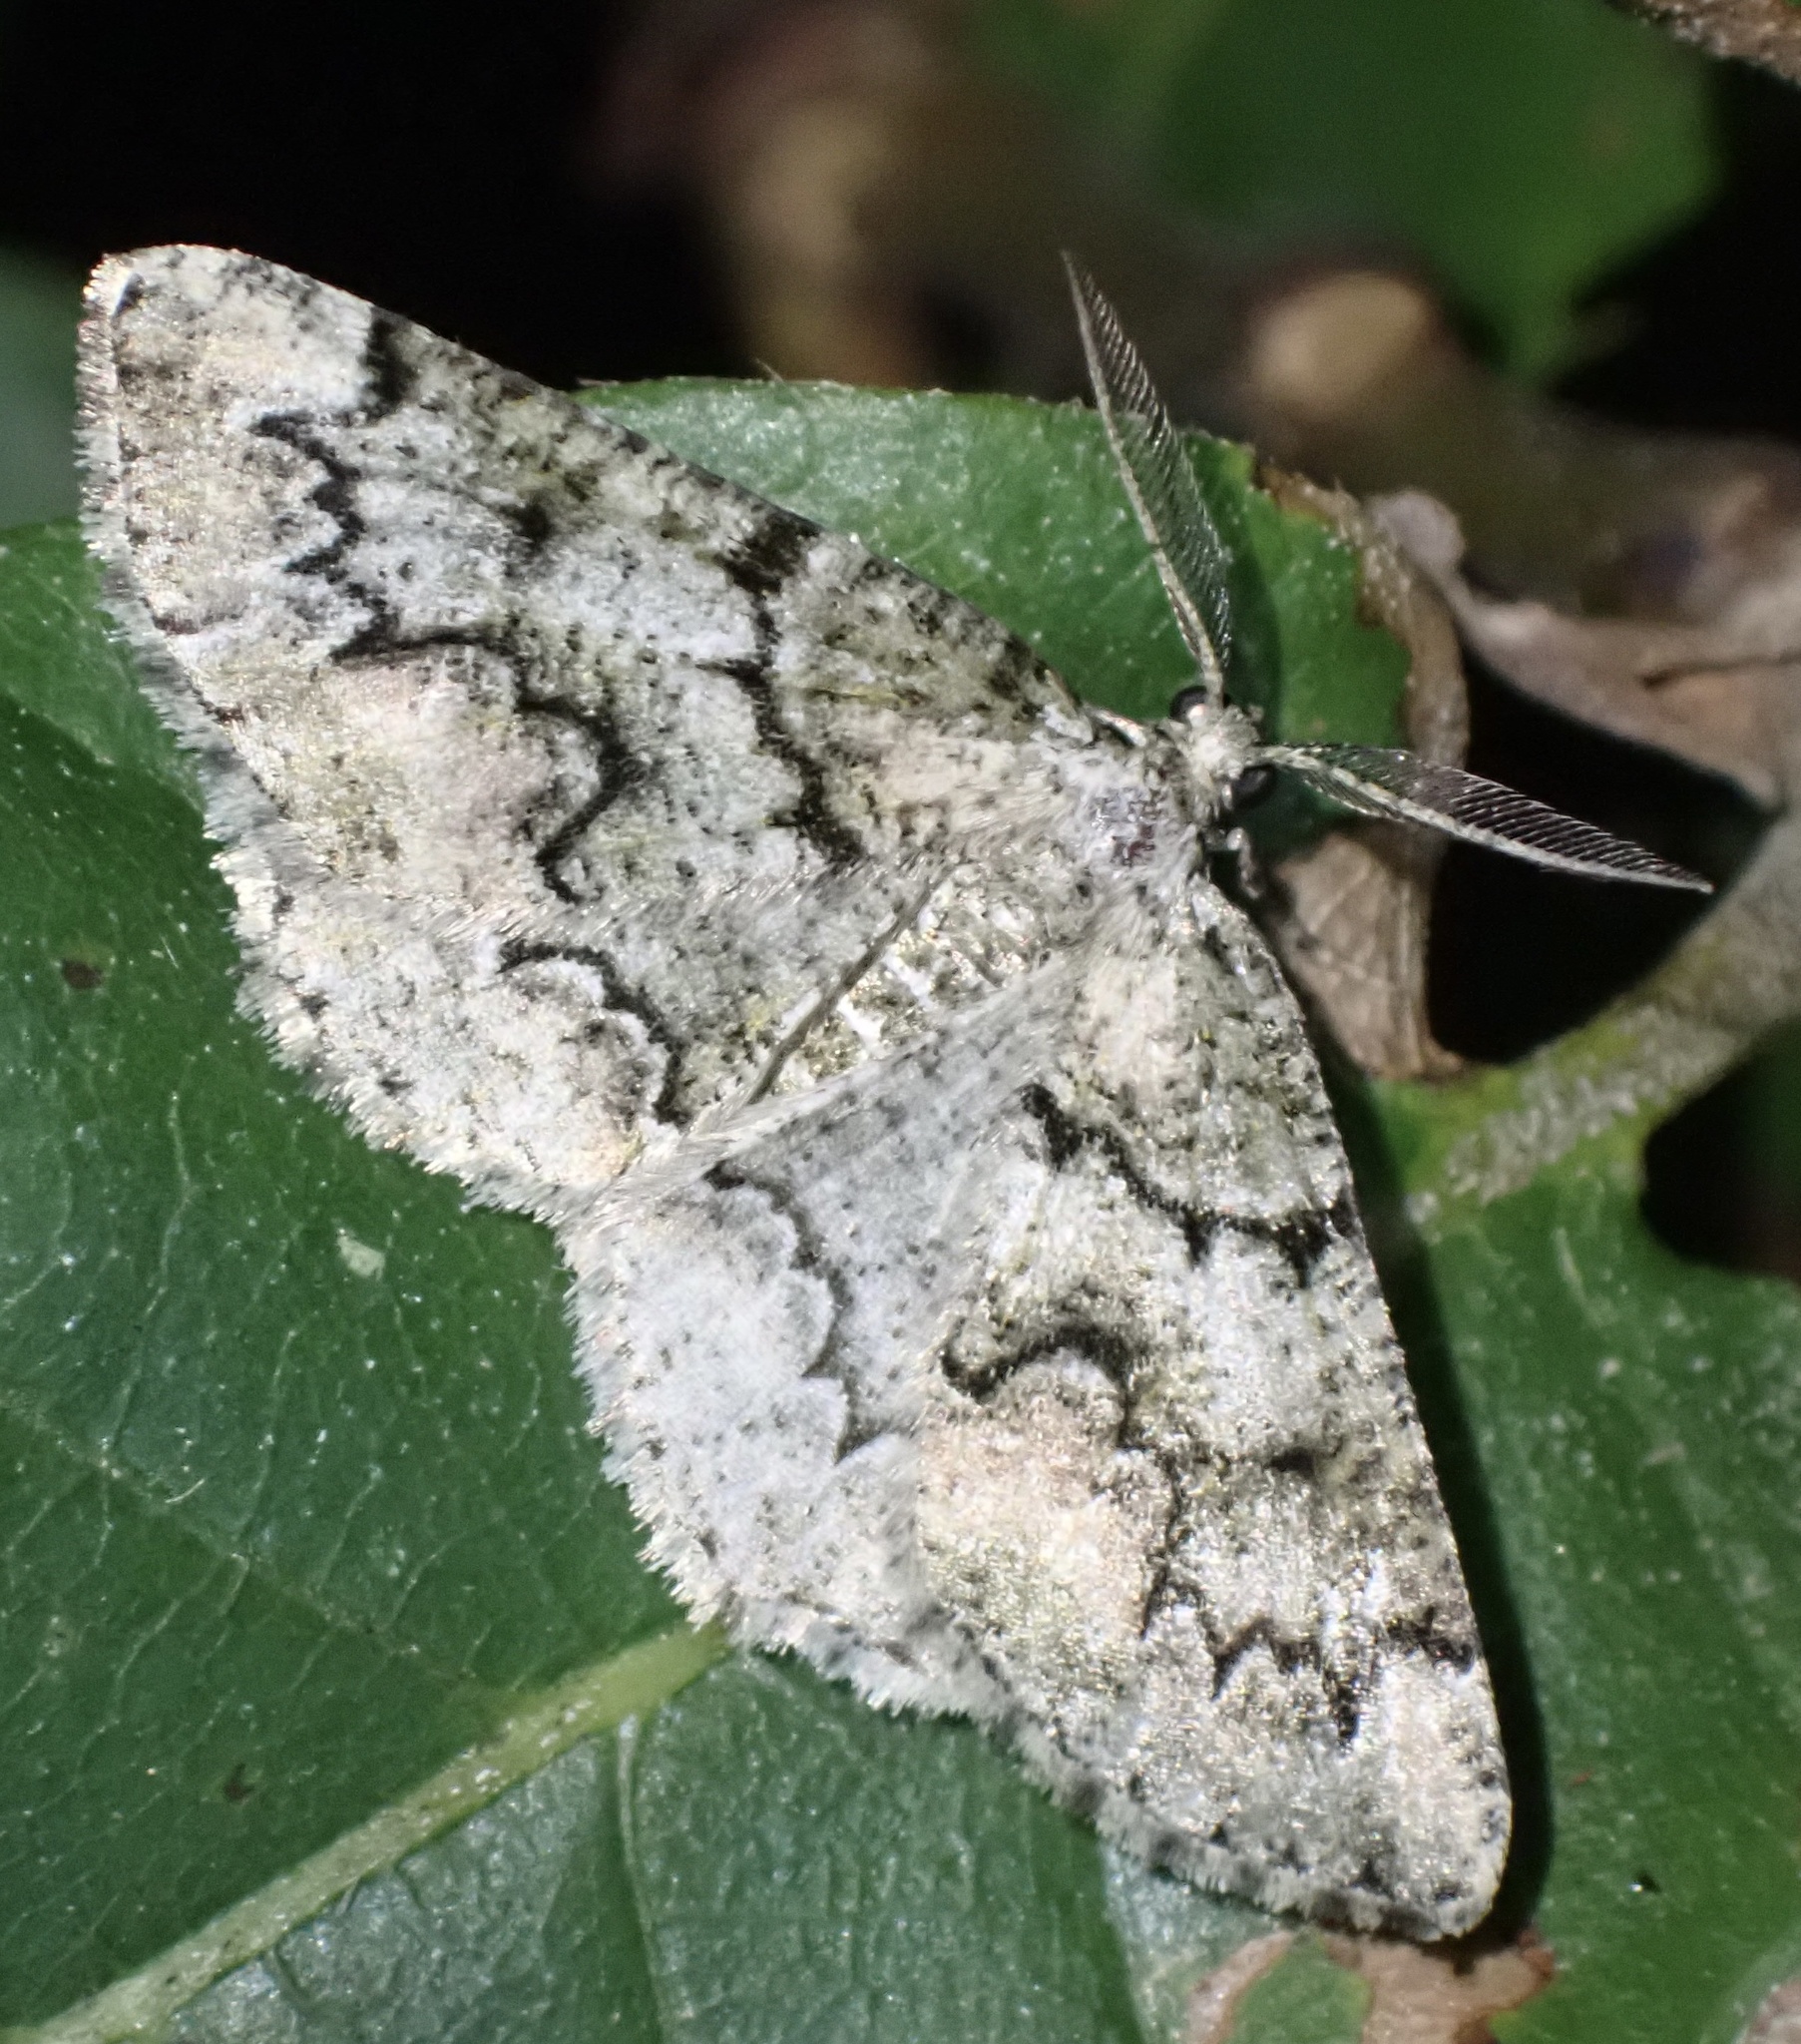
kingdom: Animalia
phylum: Arthropoda
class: Insecta
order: Lepidoptera
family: Geometridae
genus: Cleorodes
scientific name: Cleorodes lichenaria
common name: Brussels lace
